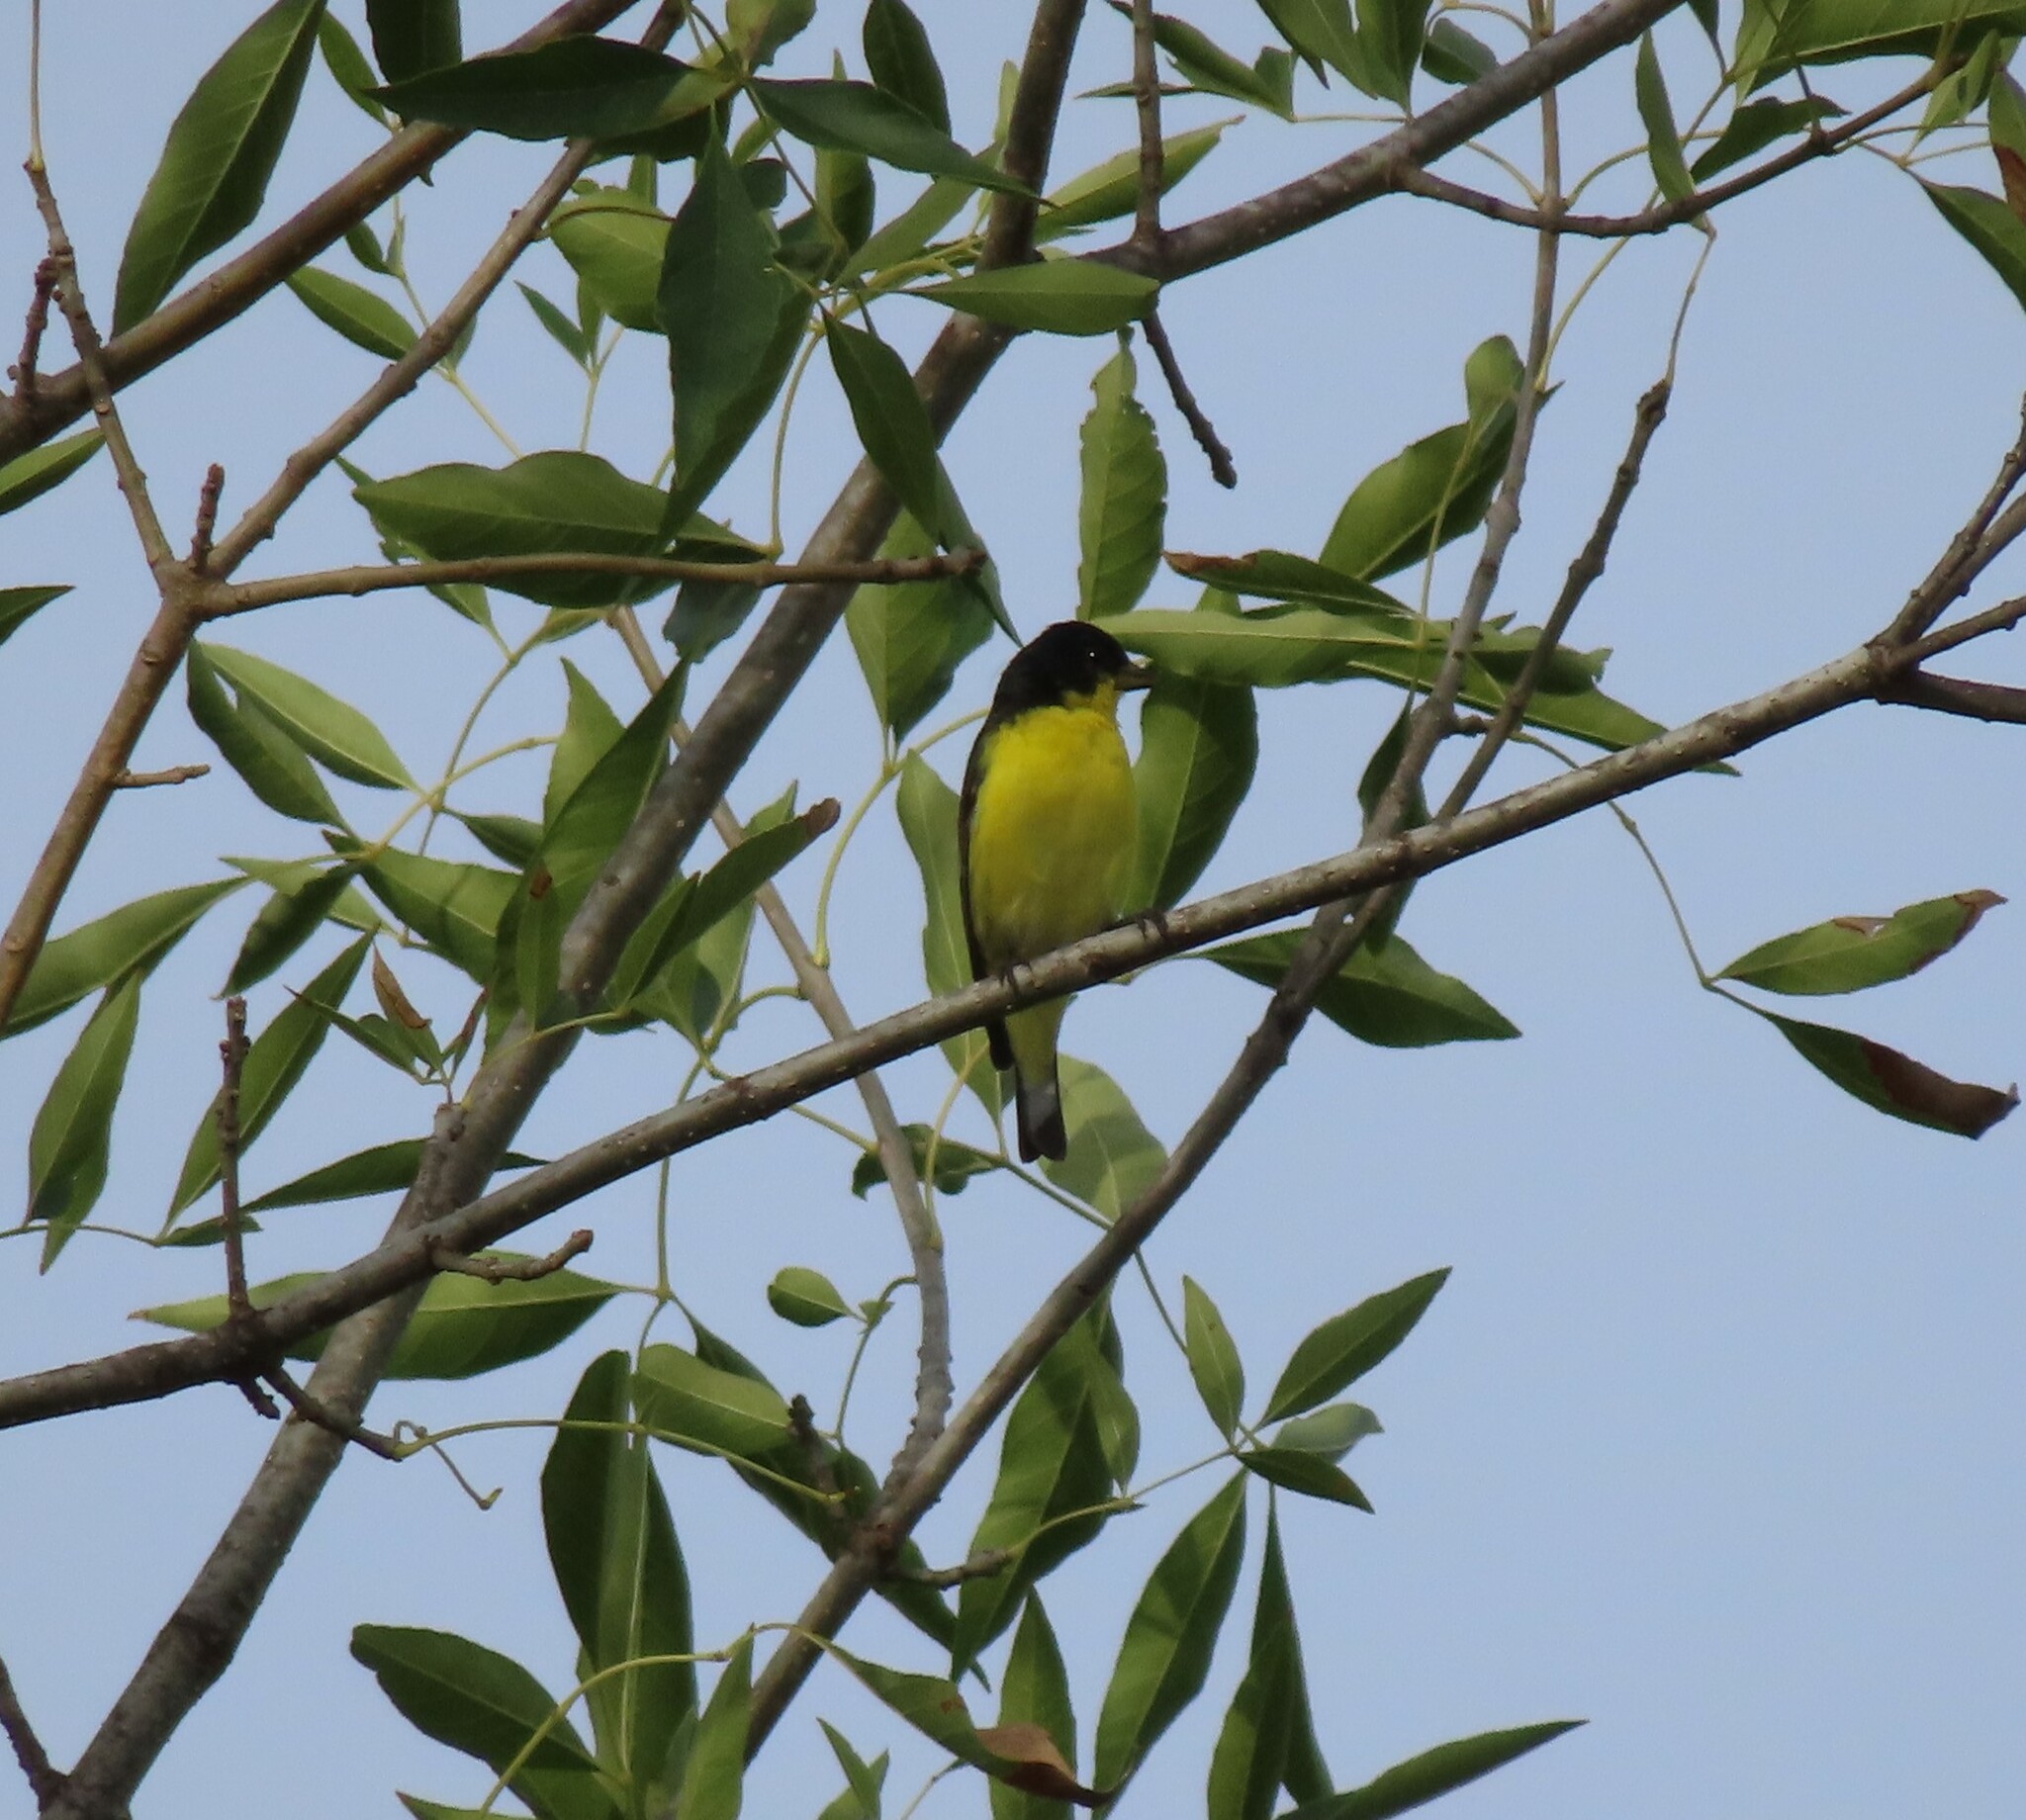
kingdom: Animalia
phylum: Chordata
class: Aves
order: Passeriformes
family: Fringillidae
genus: Spinus
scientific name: Spinus psaltria
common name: Lesser goldfinch
